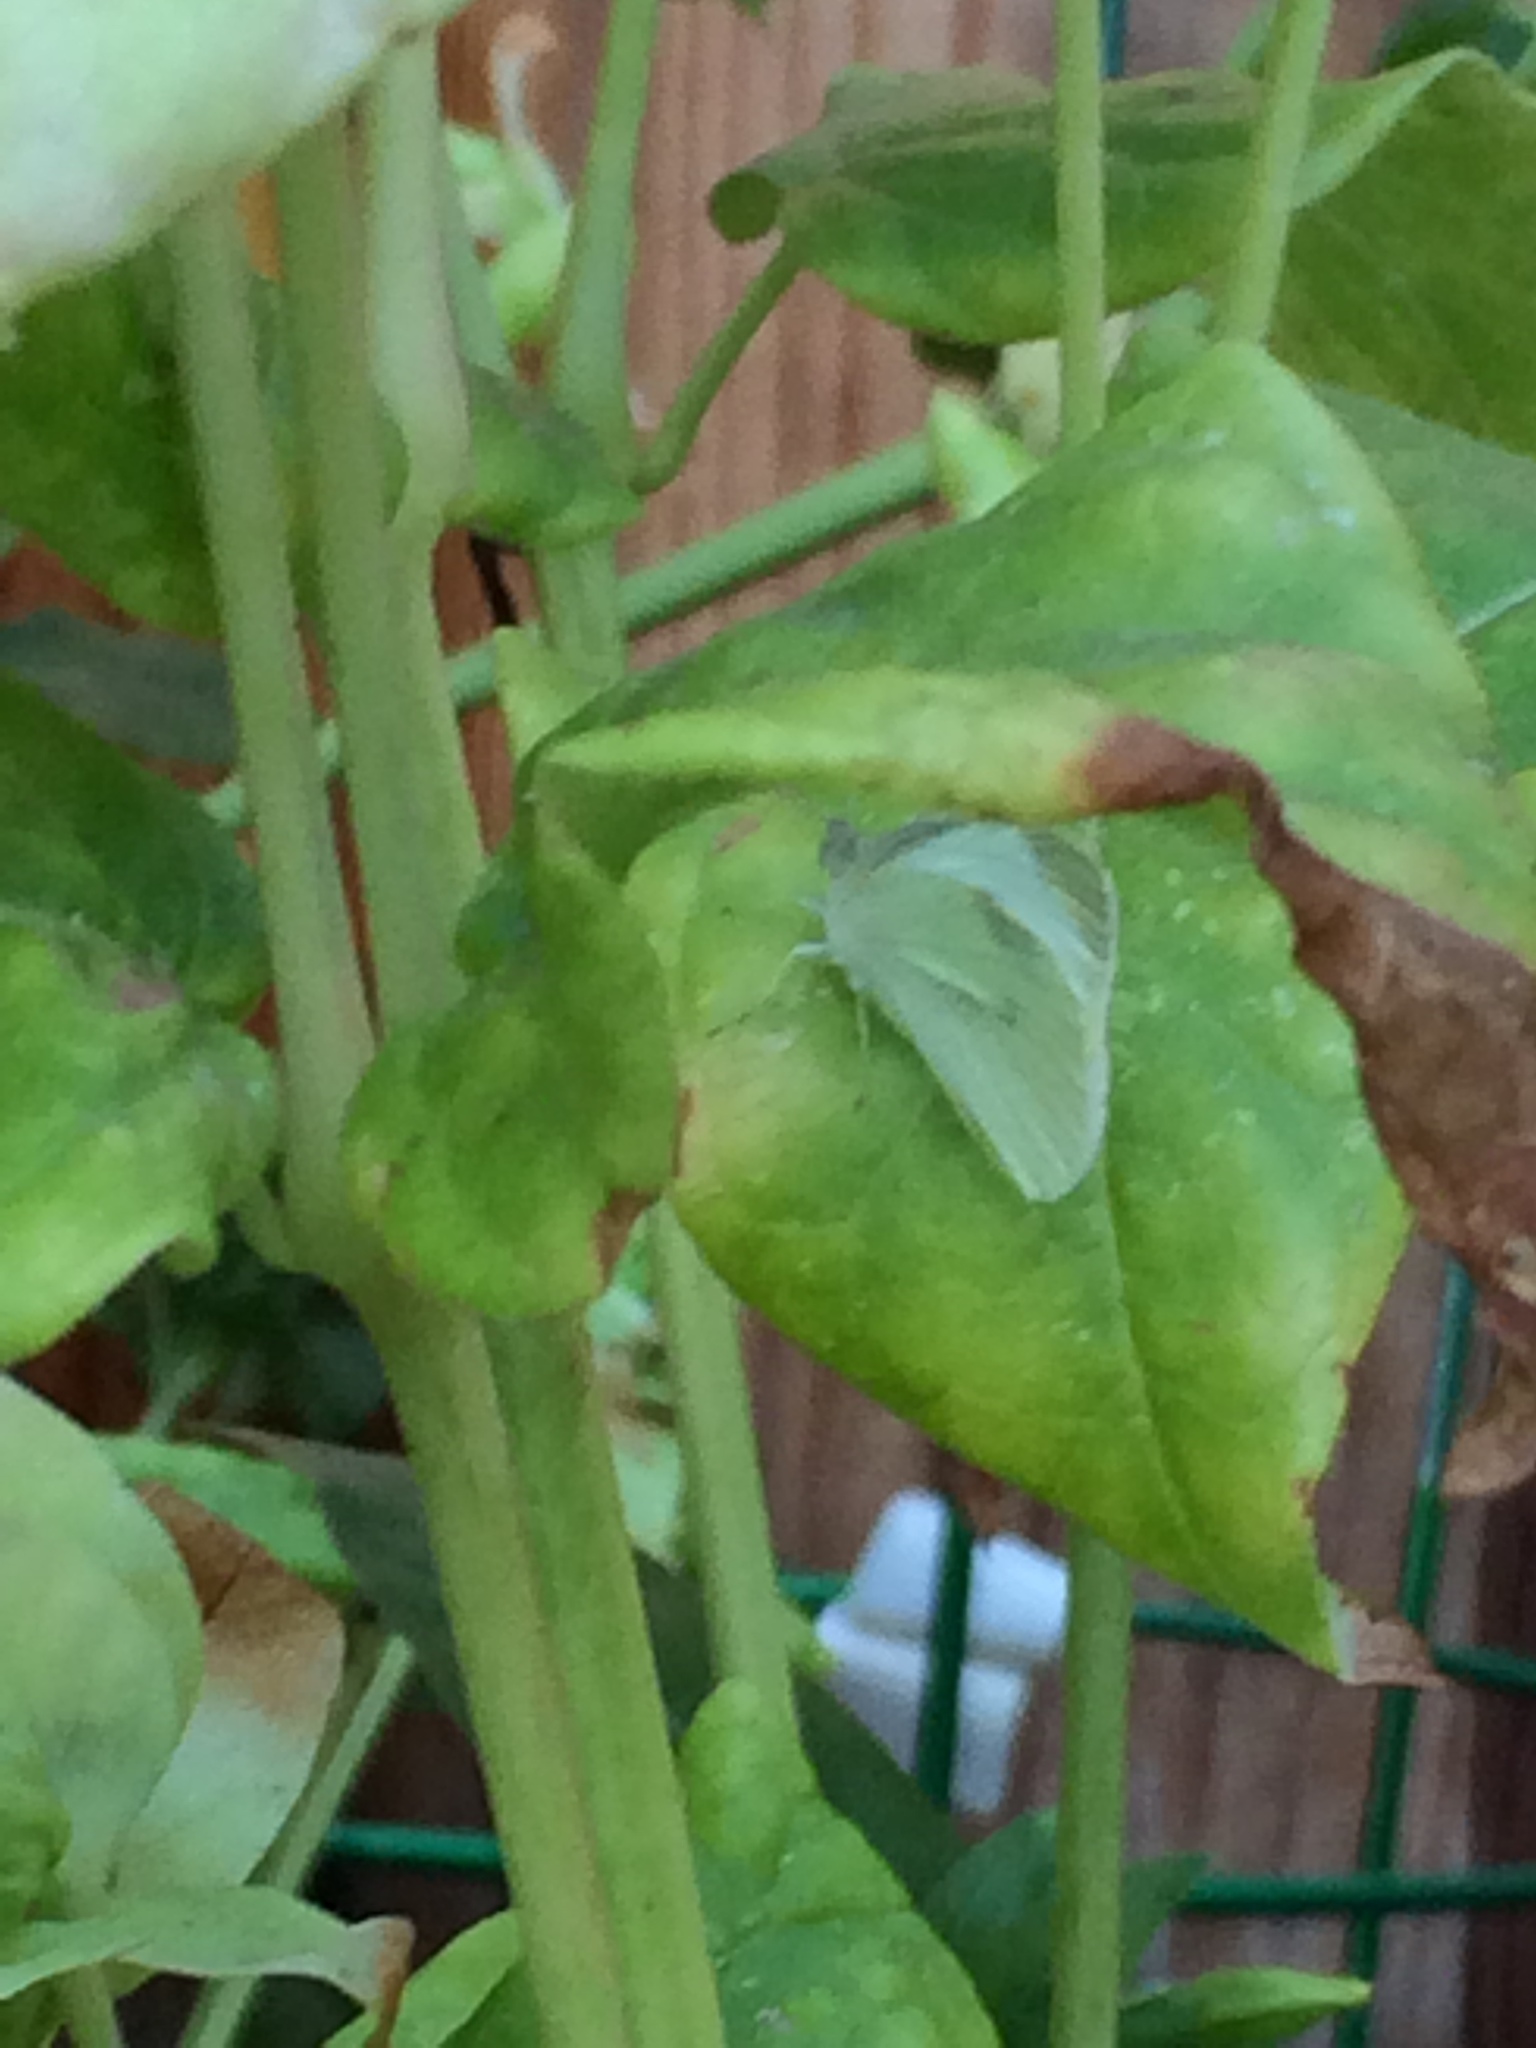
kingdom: Animalia
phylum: Arthropoda
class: Insecta
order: Lepidoptera
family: Pieridae
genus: Pieris
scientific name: Pieris rapae
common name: Small white
